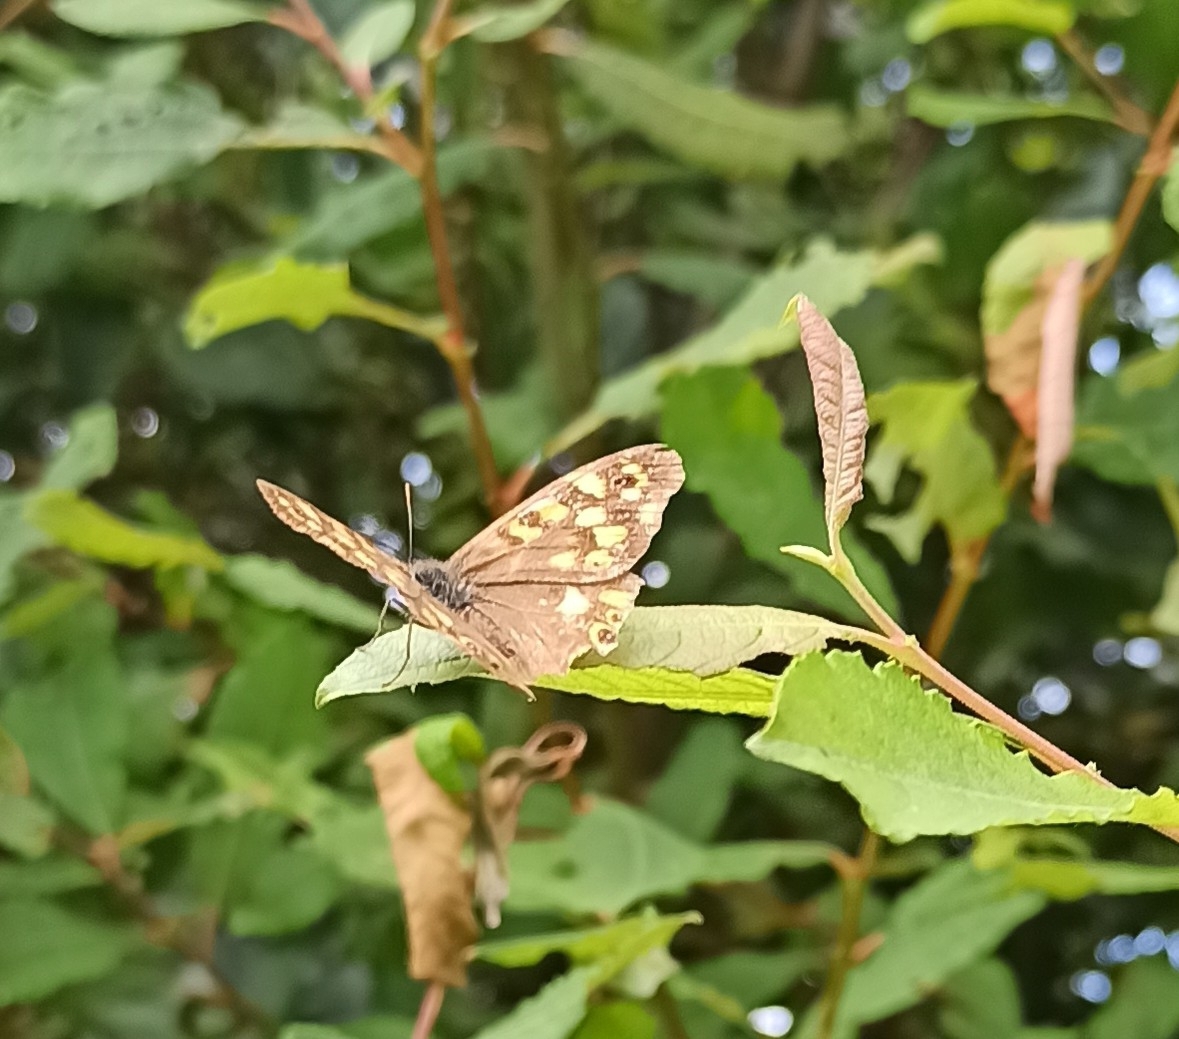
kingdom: Animalia
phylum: Arthropoda
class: Insecta
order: Lepidoptera
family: Nymphalidae
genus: Pararge
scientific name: Pararge aegeria
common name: Speckled wood
